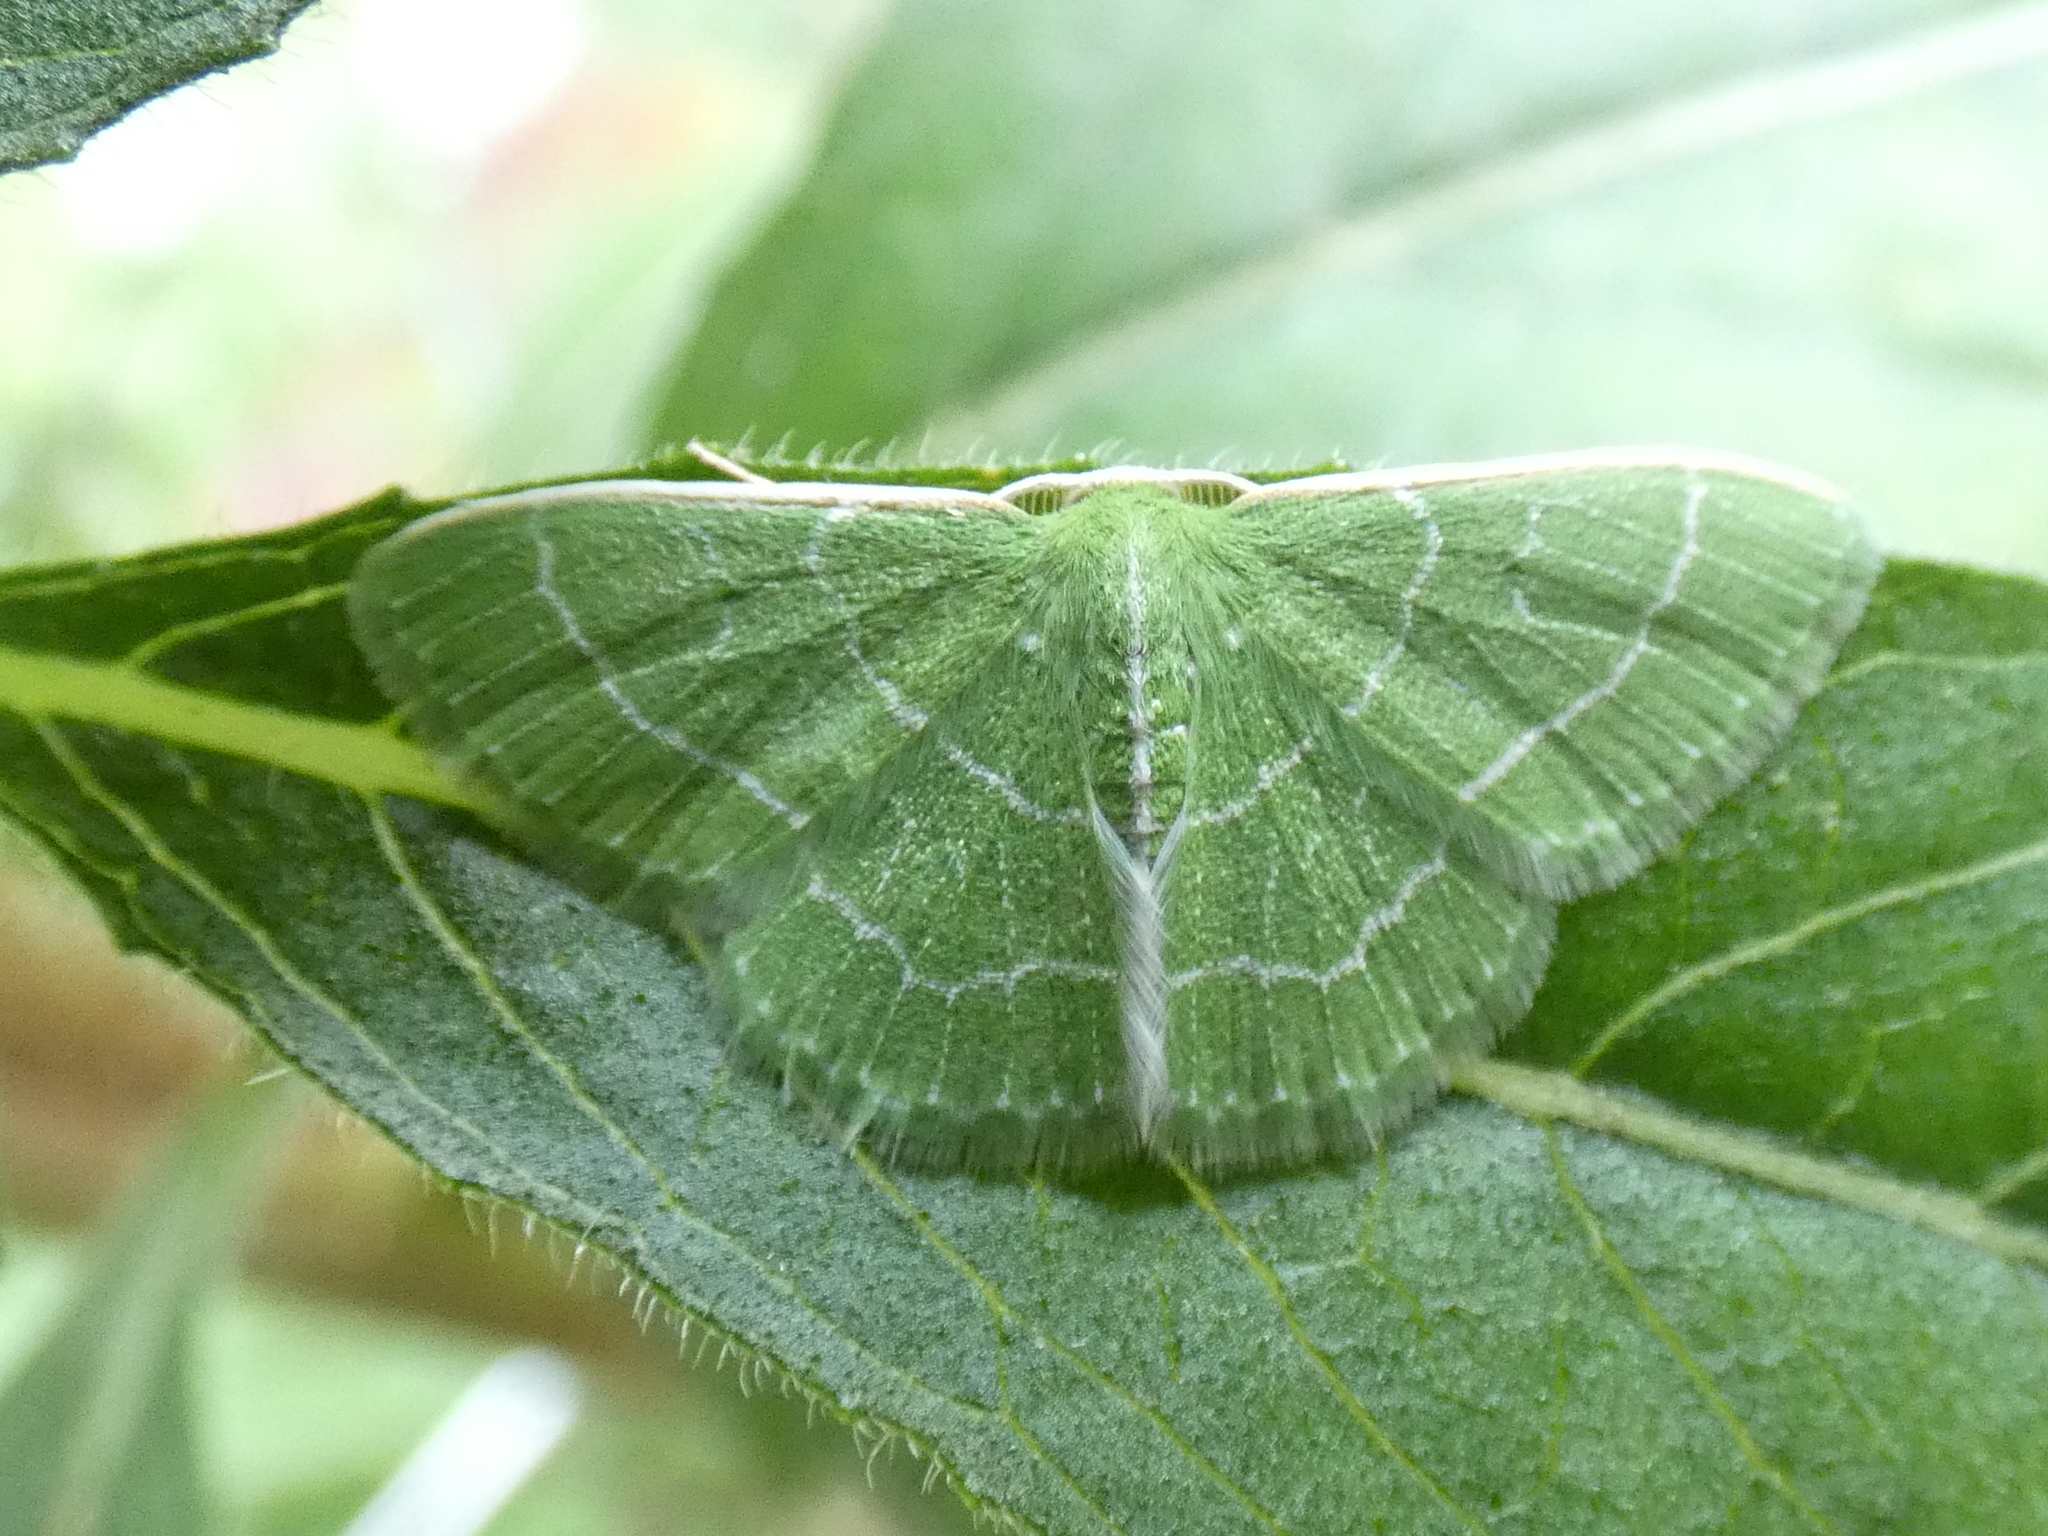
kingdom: Animalia
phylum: Arthropoda
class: Insecta
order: Lepidoptera
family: Geometridae
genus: Synchlora
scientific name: Synchlora aerata
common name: Wavy-lined emerald
